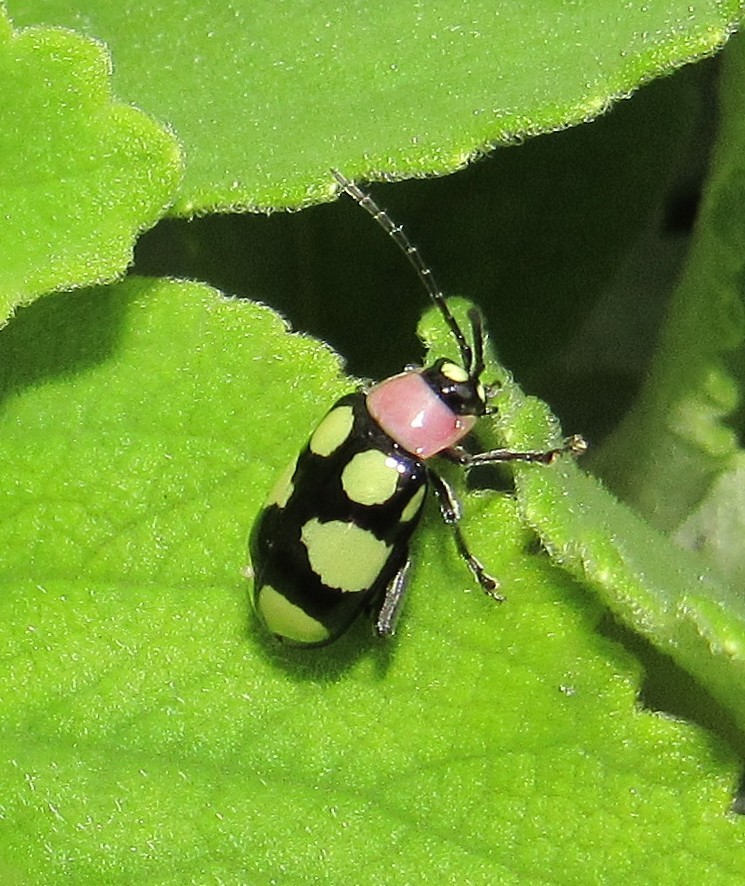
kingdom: Animalia
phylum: Arthropoda
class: Insecta
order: Coleoptera
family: Chrysomelidae
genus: Omophoita
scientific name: Omophoita
